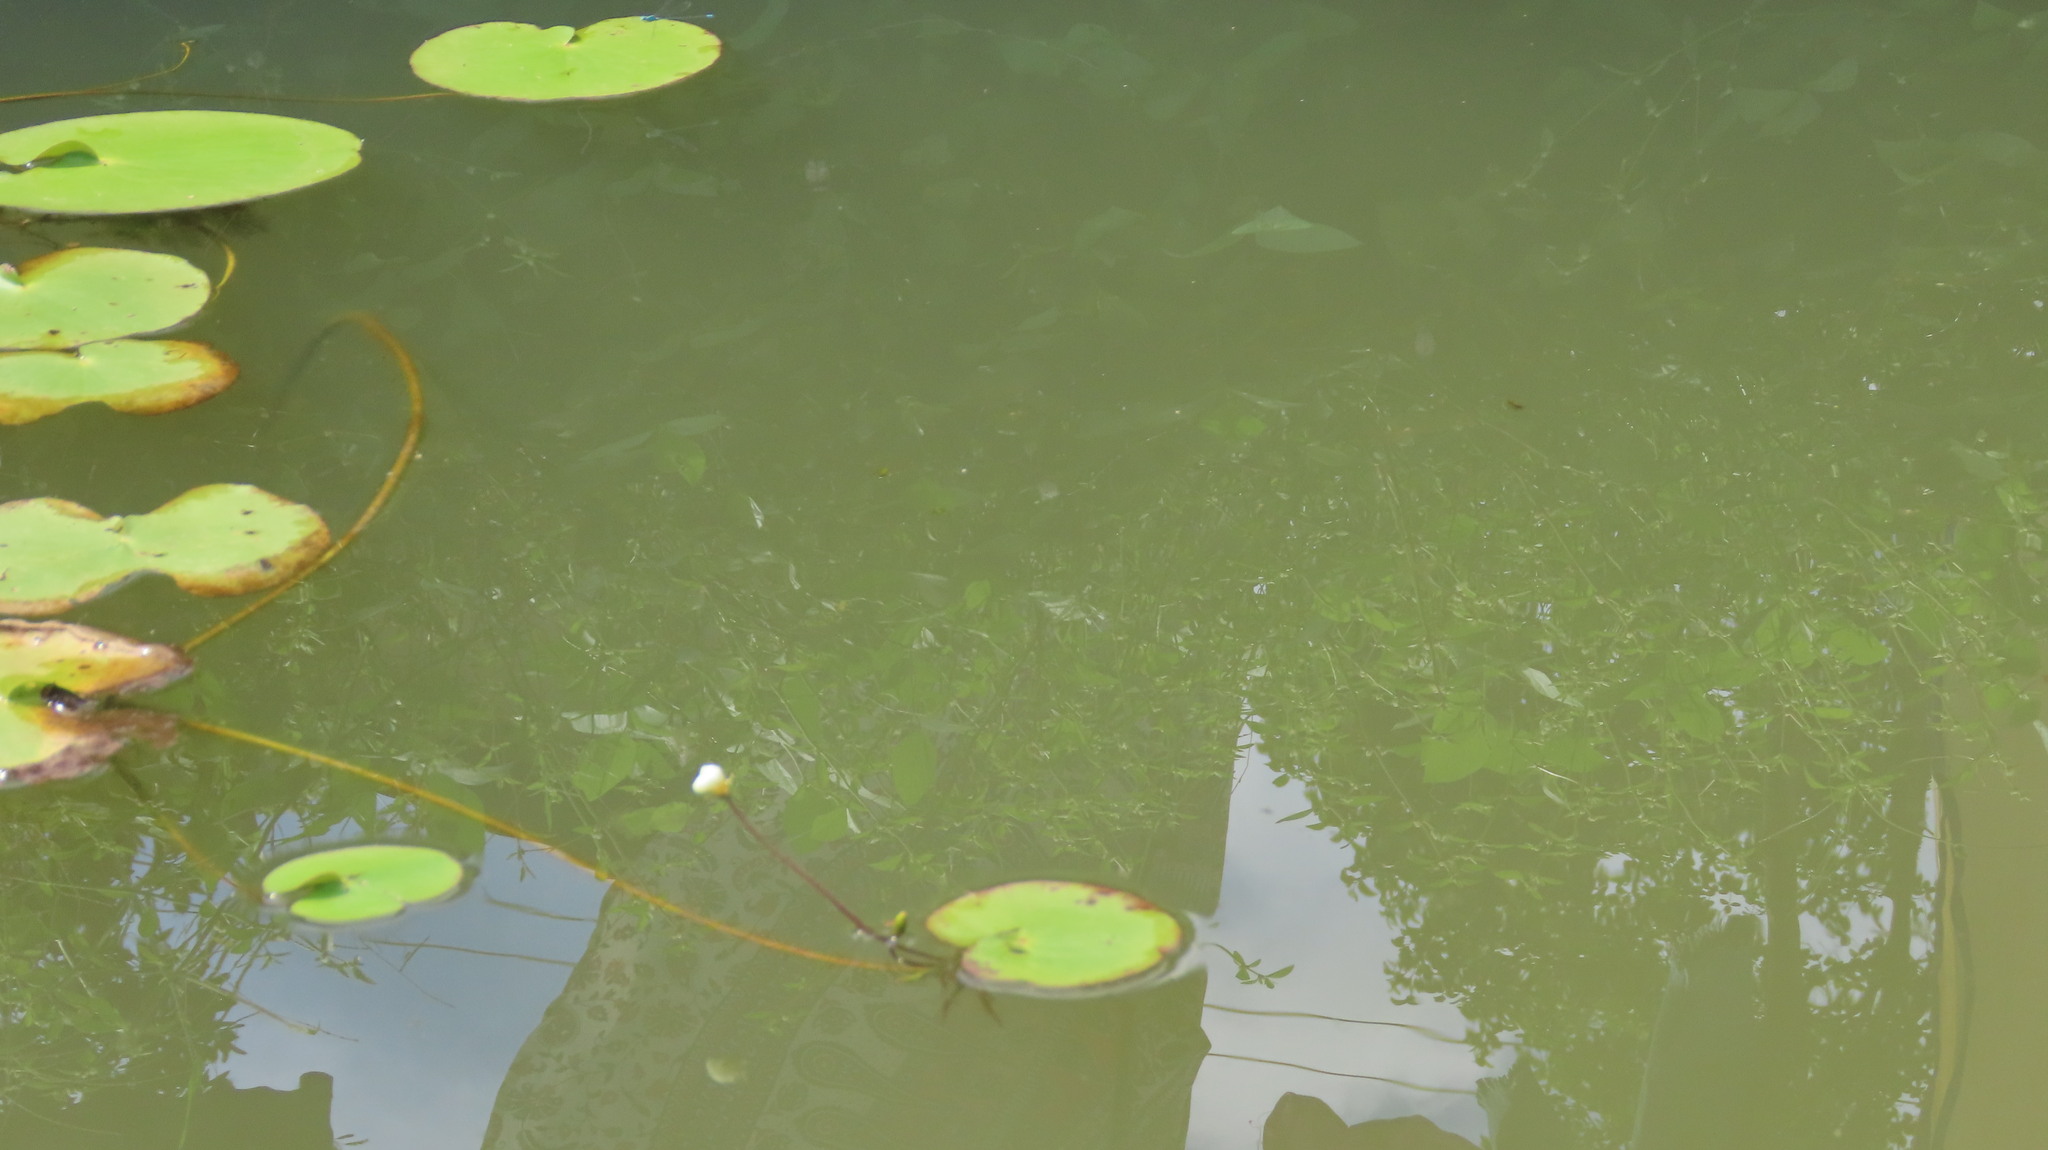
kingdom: Plantae
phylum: Tracheophyta
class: Magnoliopsida
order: Asterales
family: Menyanthaceae
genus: Nymphoides
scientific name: Nymphoides indica
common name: Water-snowflake
